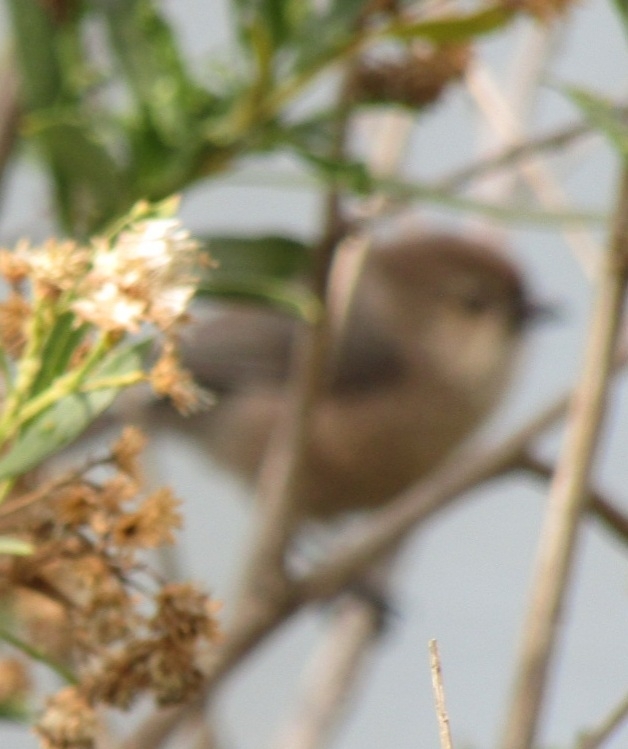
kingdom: Animalia
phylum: Chordata
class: Aves
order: Passeriformes
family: Aegithalidae
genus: Psaltriparus
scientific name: Psaltriparus minimus
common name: American bushtit
